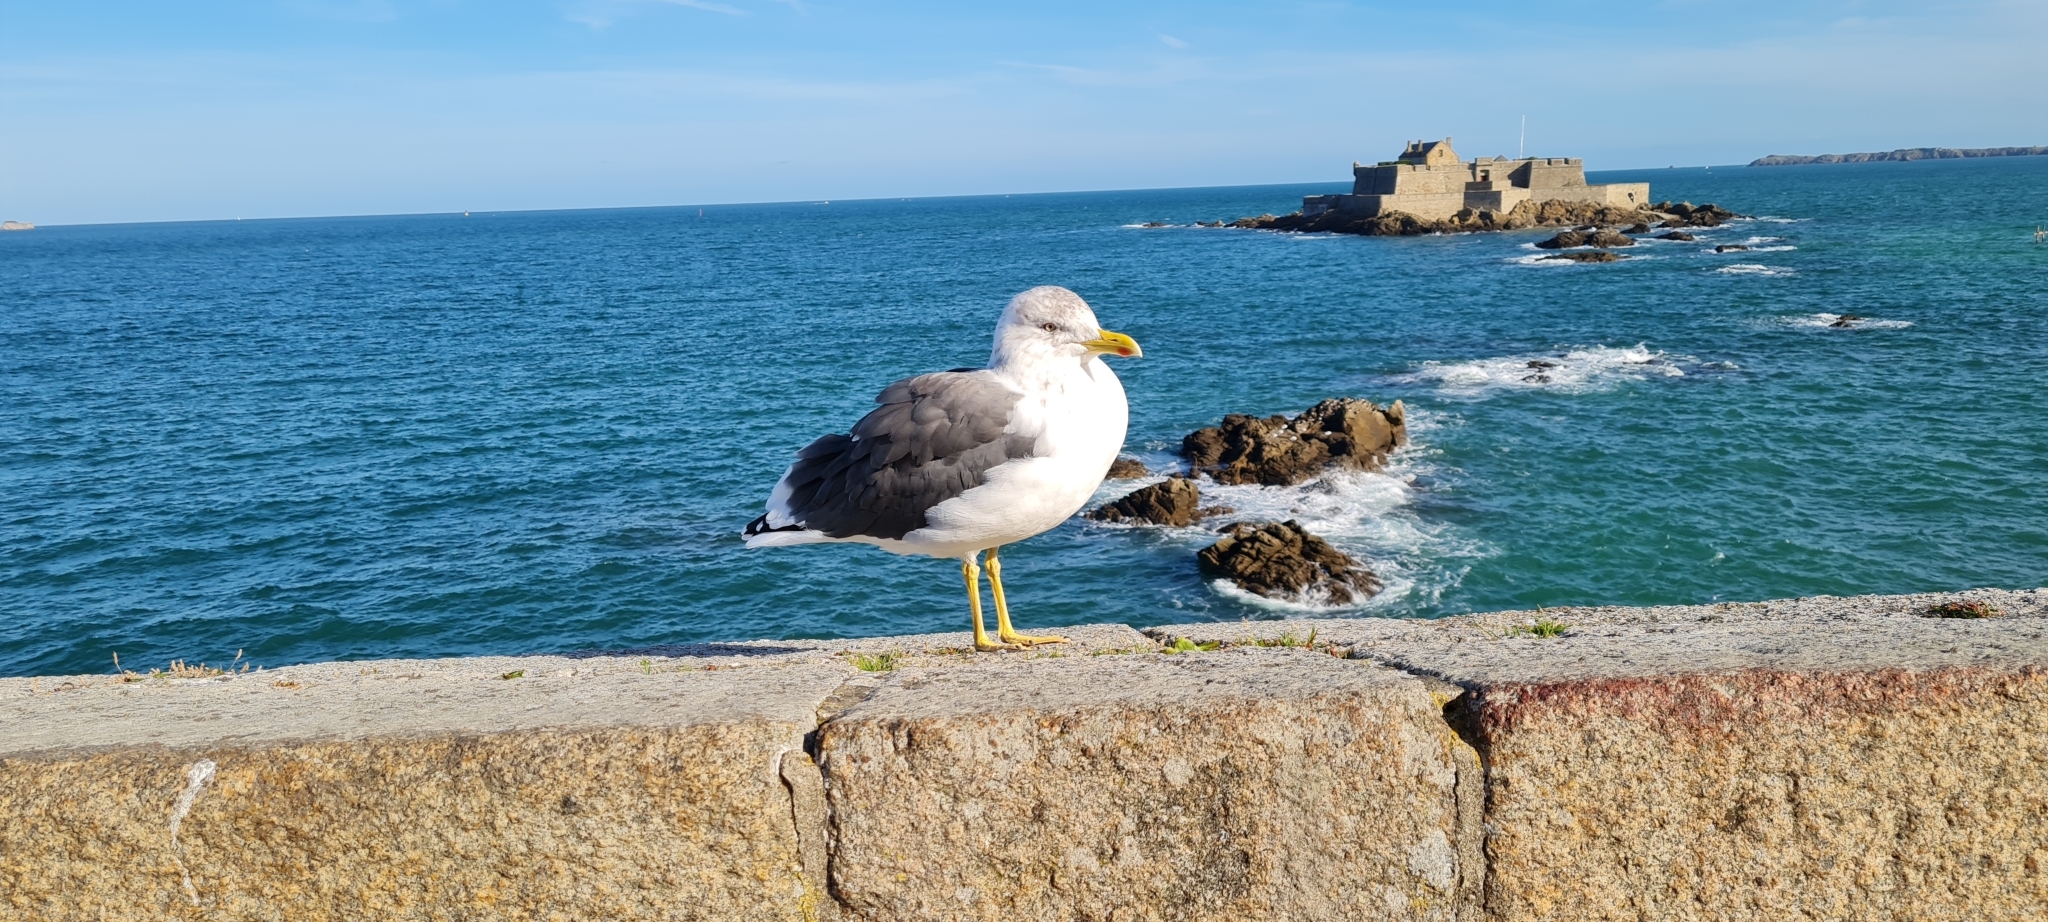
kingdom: Animalia
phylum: Chordata
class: Aves
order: Charadriiformes
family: Laridae
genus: Larus
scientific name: Larus fuscus
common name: Lesser black-backed gull
